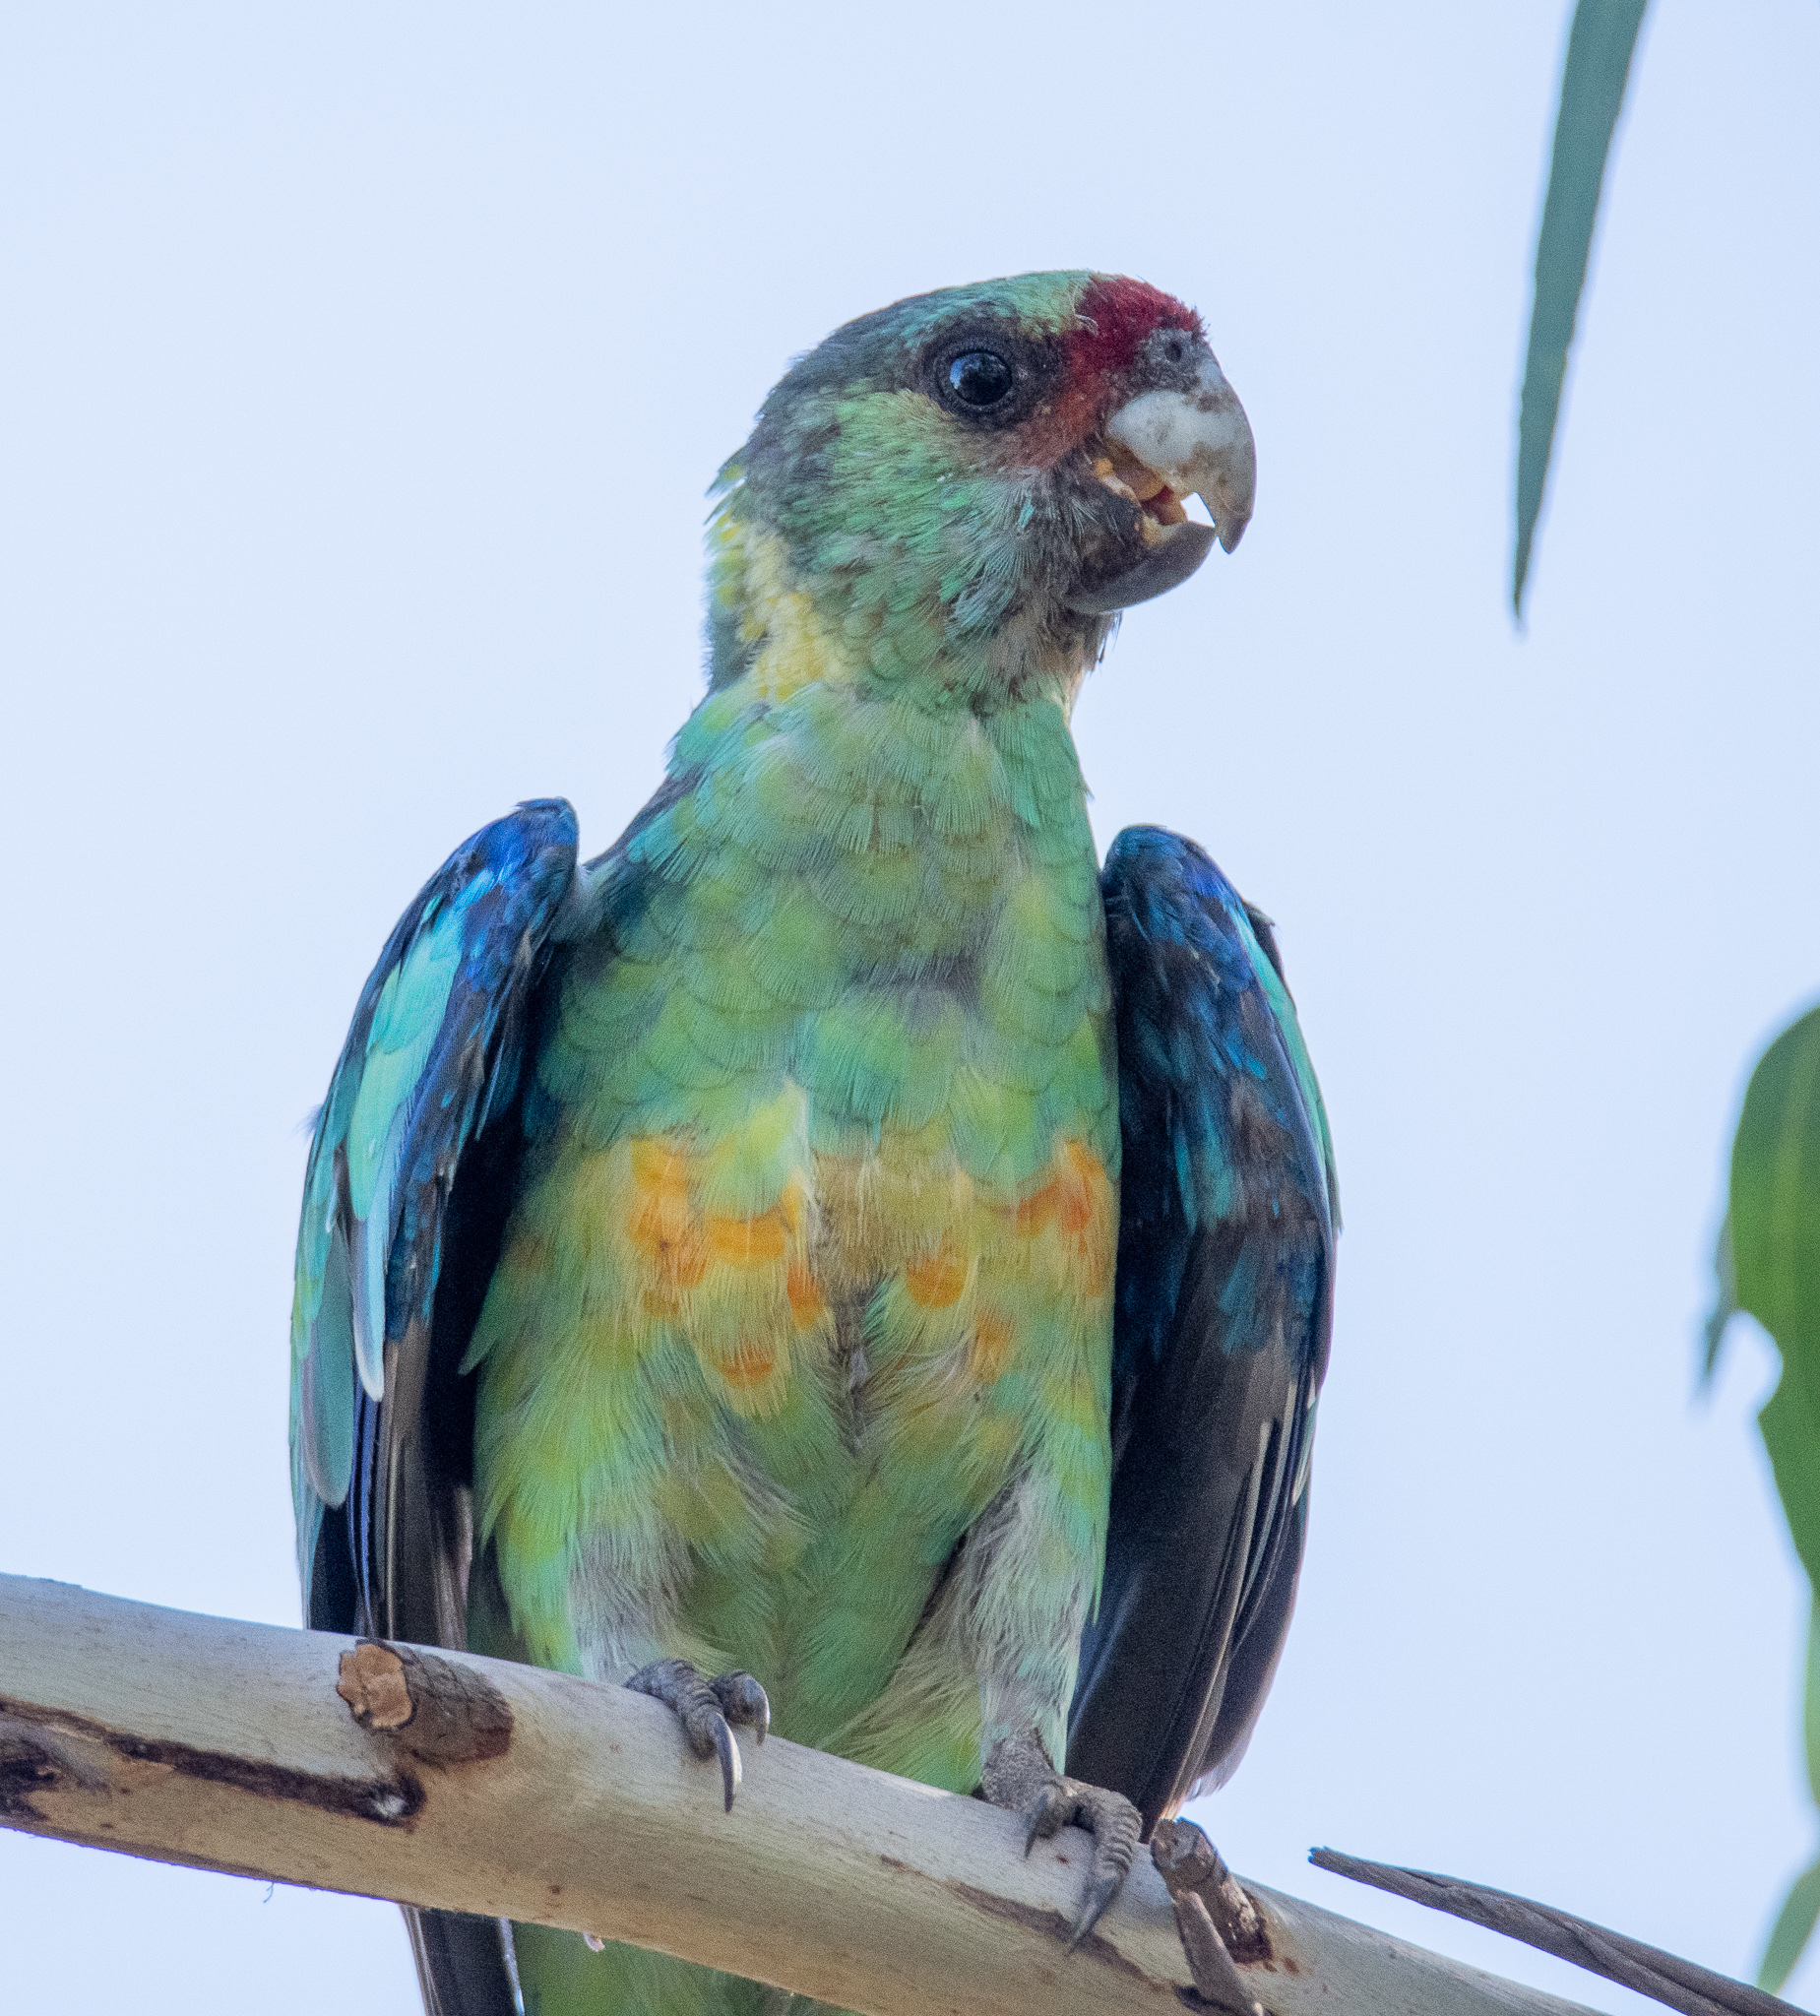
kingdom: Animalia
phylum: Chordata
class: Aves
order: Psittaciformes
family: Psittacidae
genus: Barnardius
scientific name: Barnardius zonarius
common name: Australian ringneck
